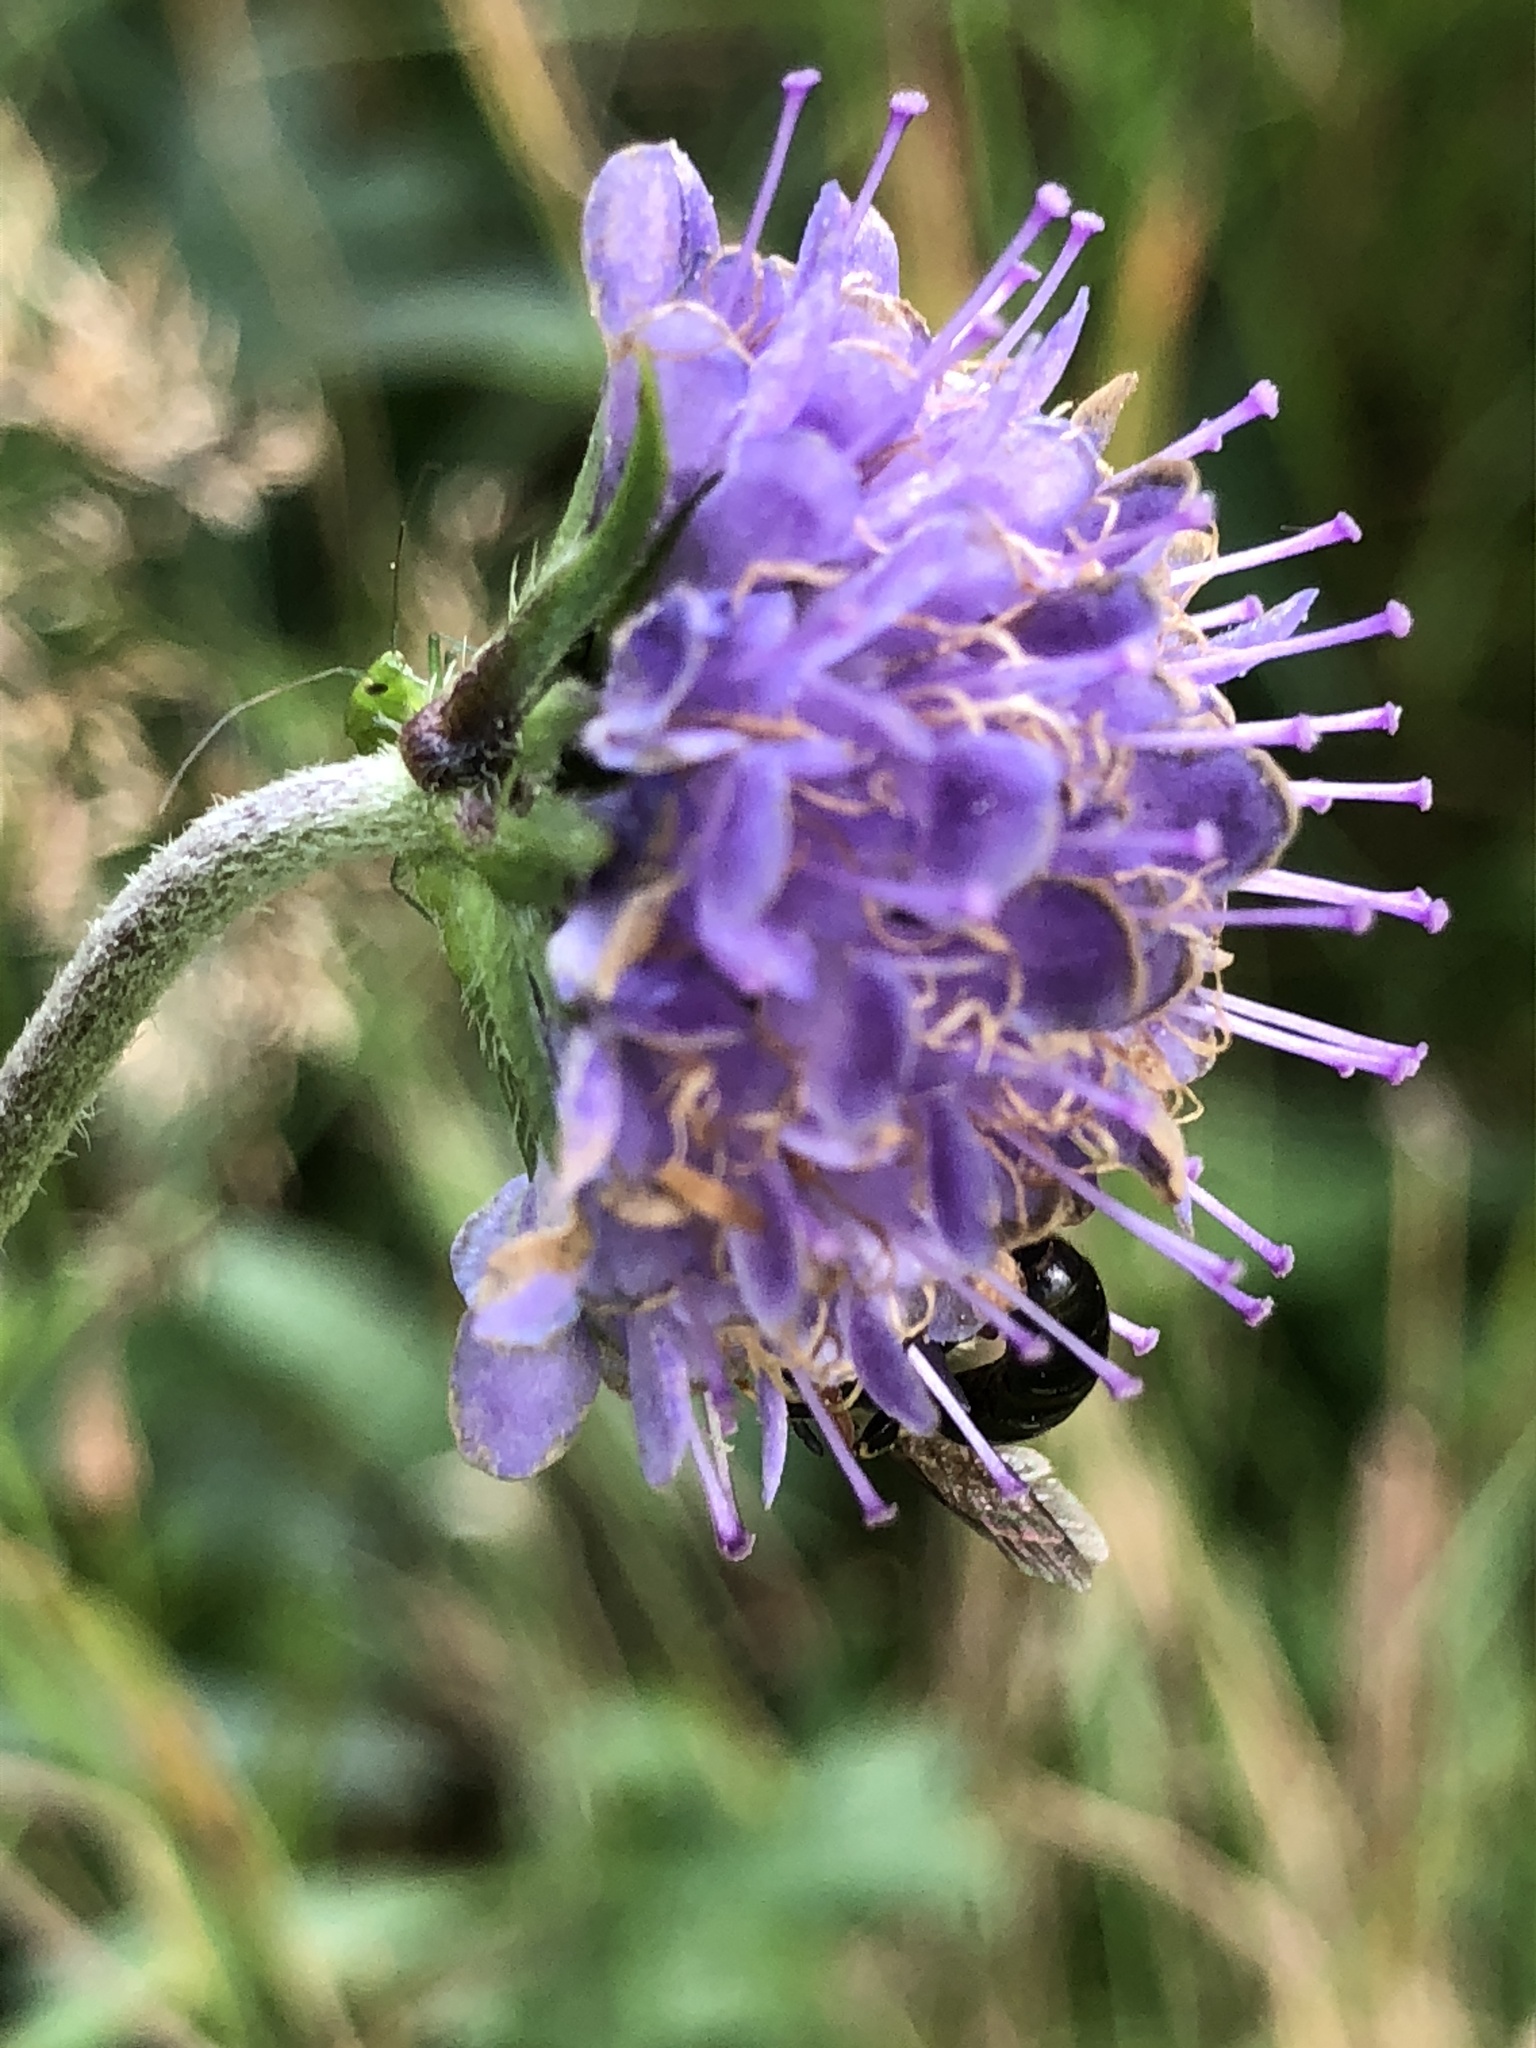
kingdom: Plantae
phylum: Tracheophyta
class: Magnoliopsida
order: Dipsacales
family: Caprifoliaceae
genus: Succisa
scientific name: Succisa pratensis
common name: Devil's-bit
